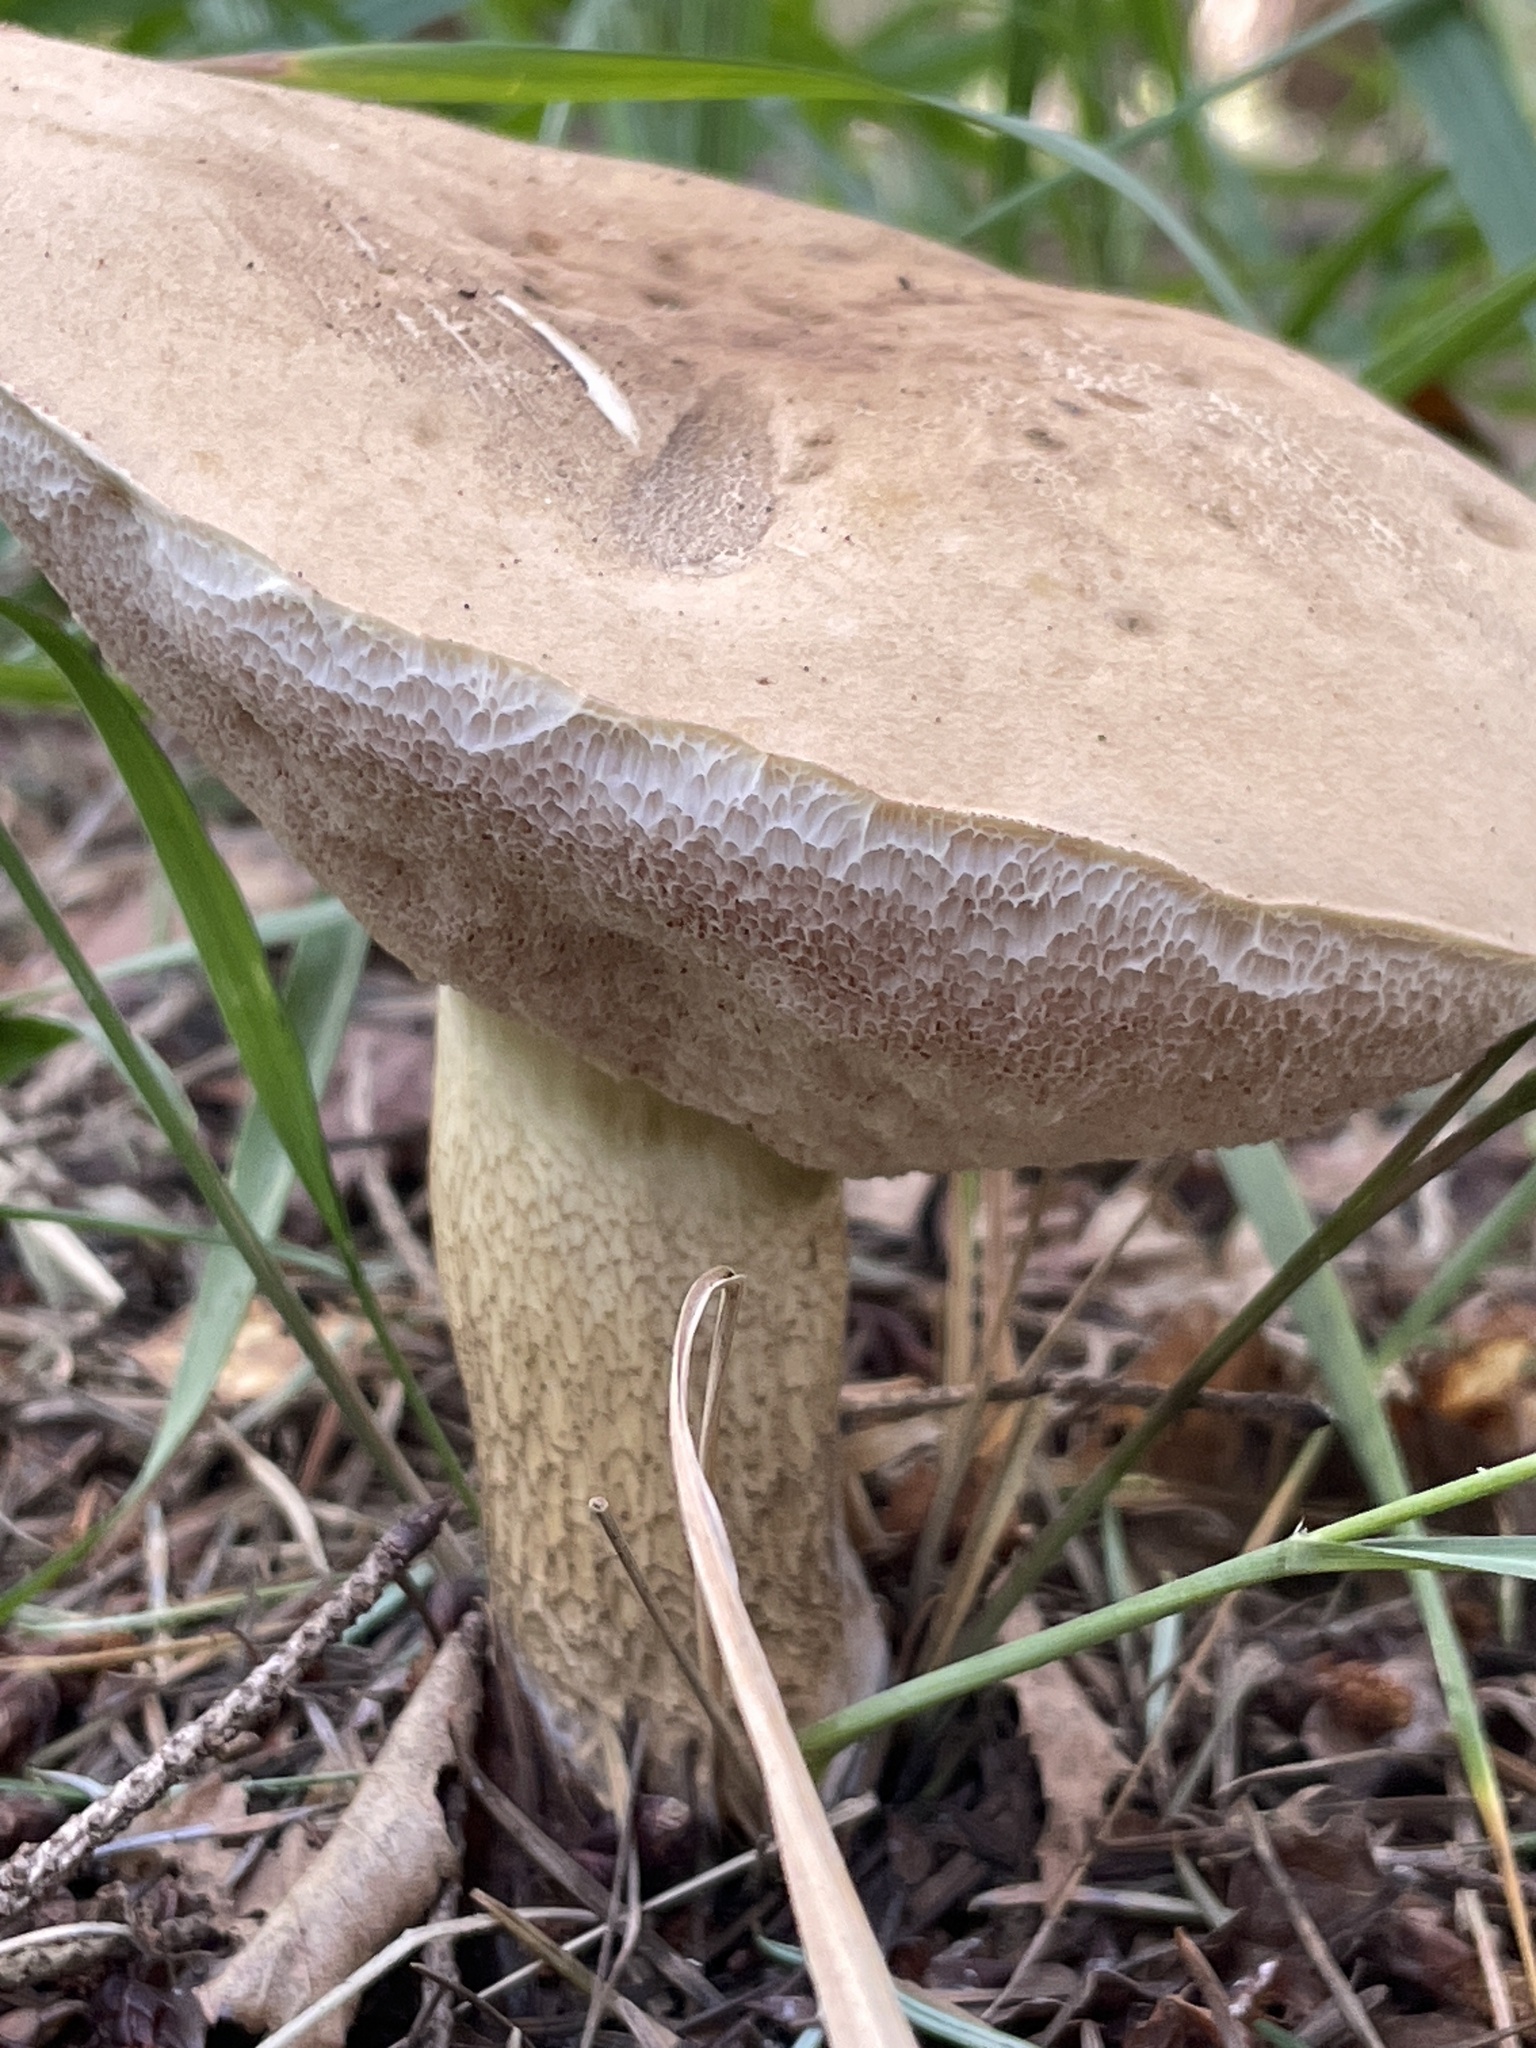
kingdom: Fungi
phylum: Basidiomycota
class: Agaricomycetes
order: Boletales
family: Boletaceae
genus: Tylopilus
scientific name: Tylopilus felleus
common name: Bitter bolete
